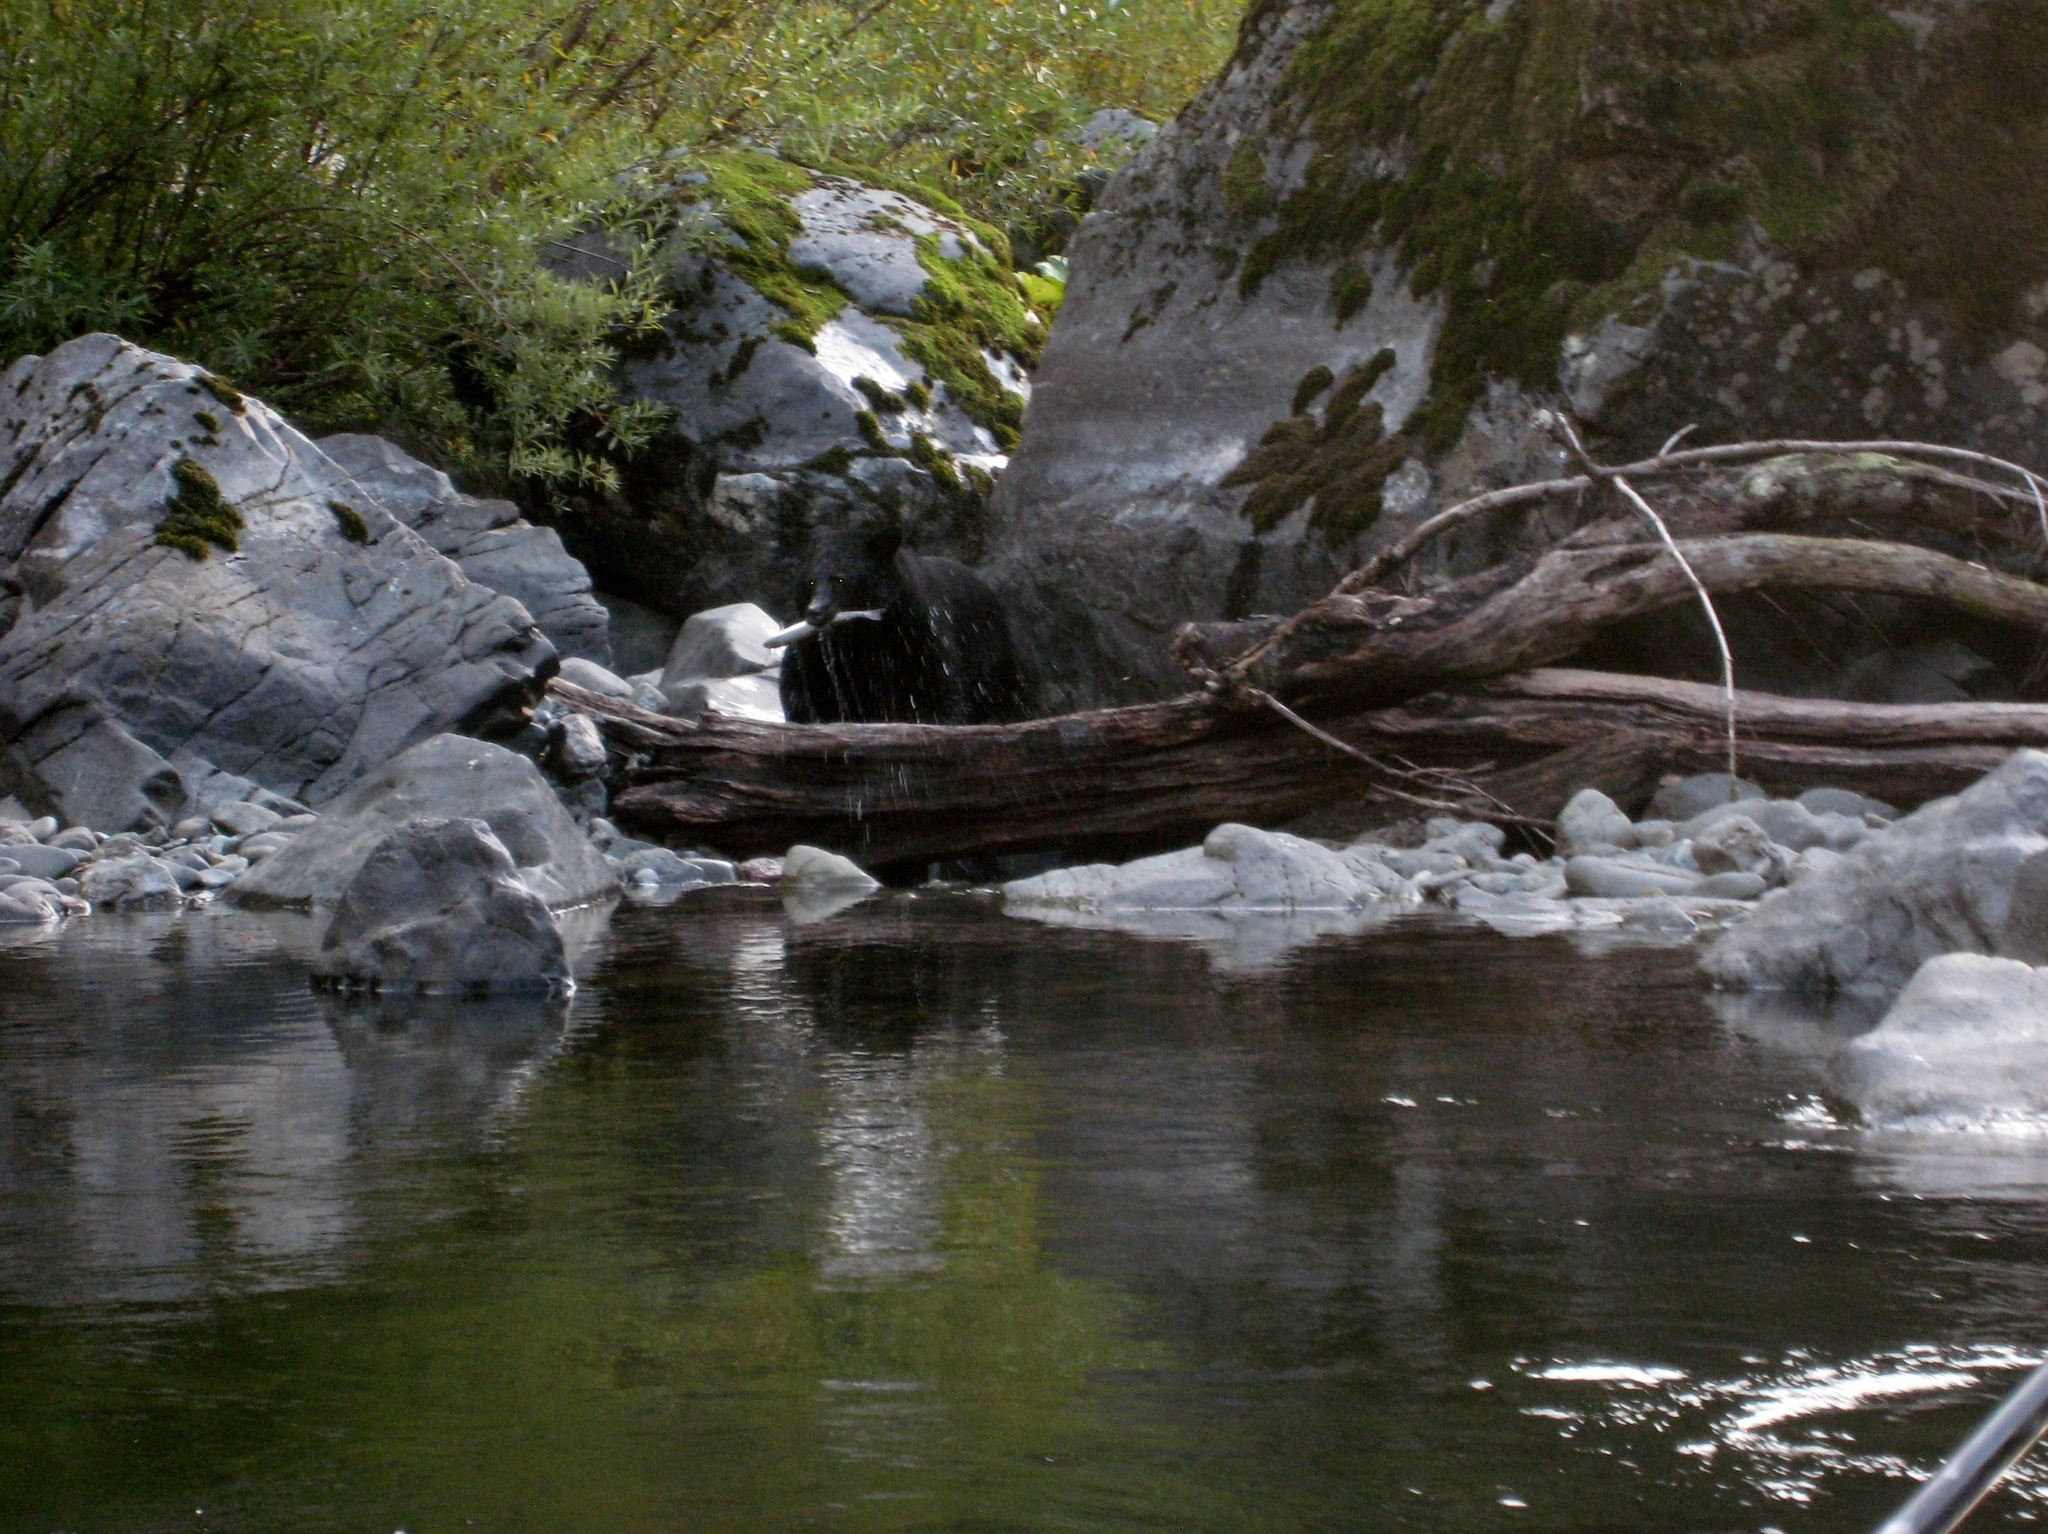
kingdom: Animalia
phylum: Chordata
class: Mammalia
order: Carnivora
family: Ursidae
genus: Ursus
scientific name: Ursus americanus
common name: American black bear
